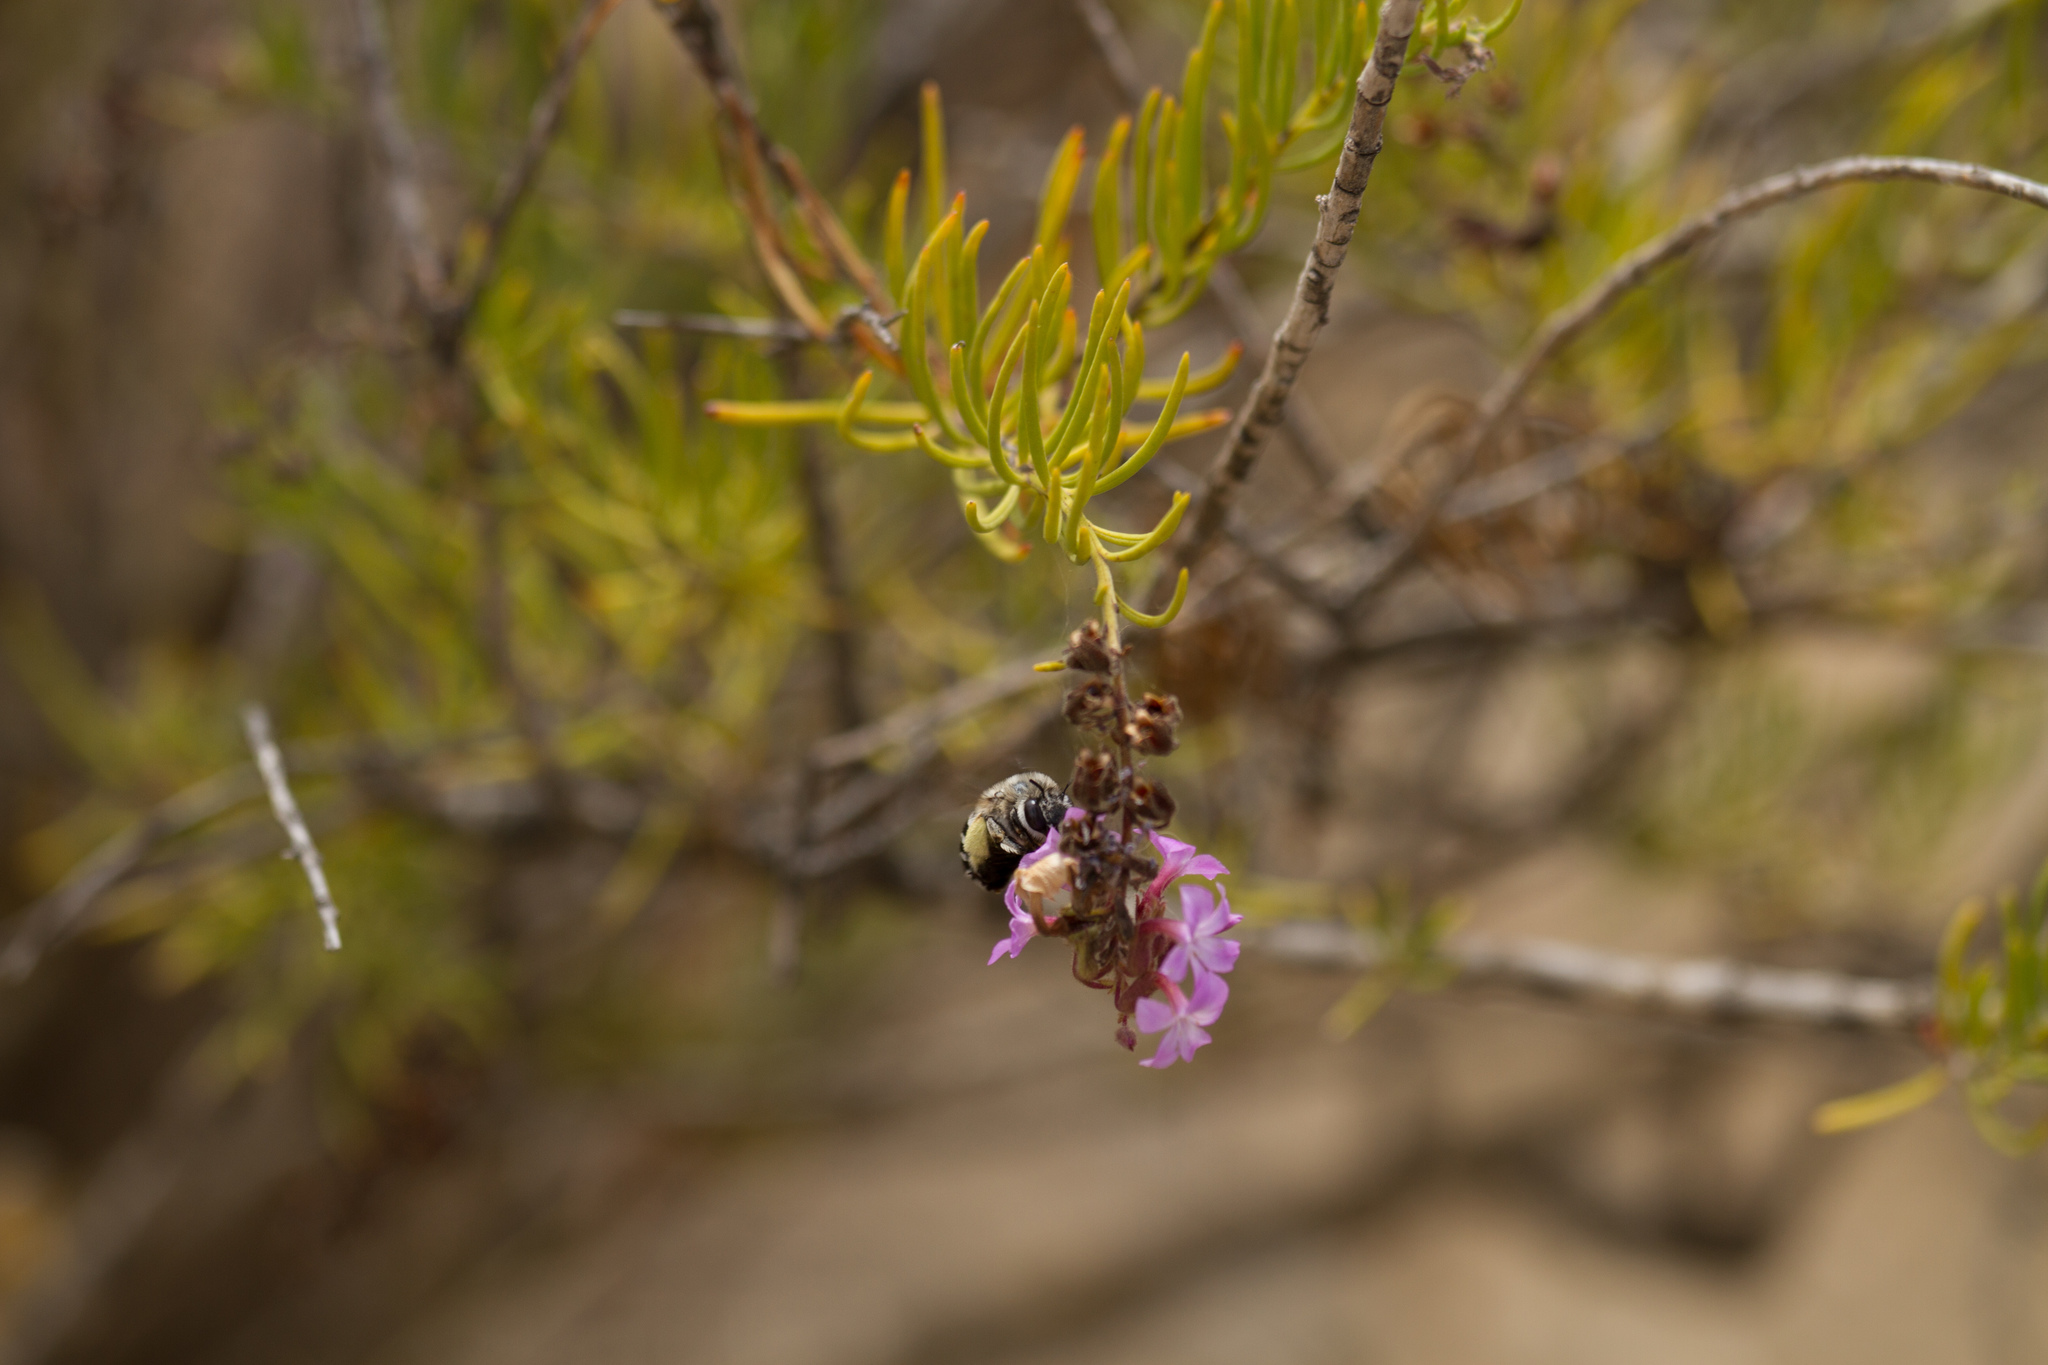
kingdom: Animalia
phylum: Arthropoda
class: Insecta
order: Hymenoptera
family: Apidae
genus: Amegilla
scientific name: Amegilla canifrons
